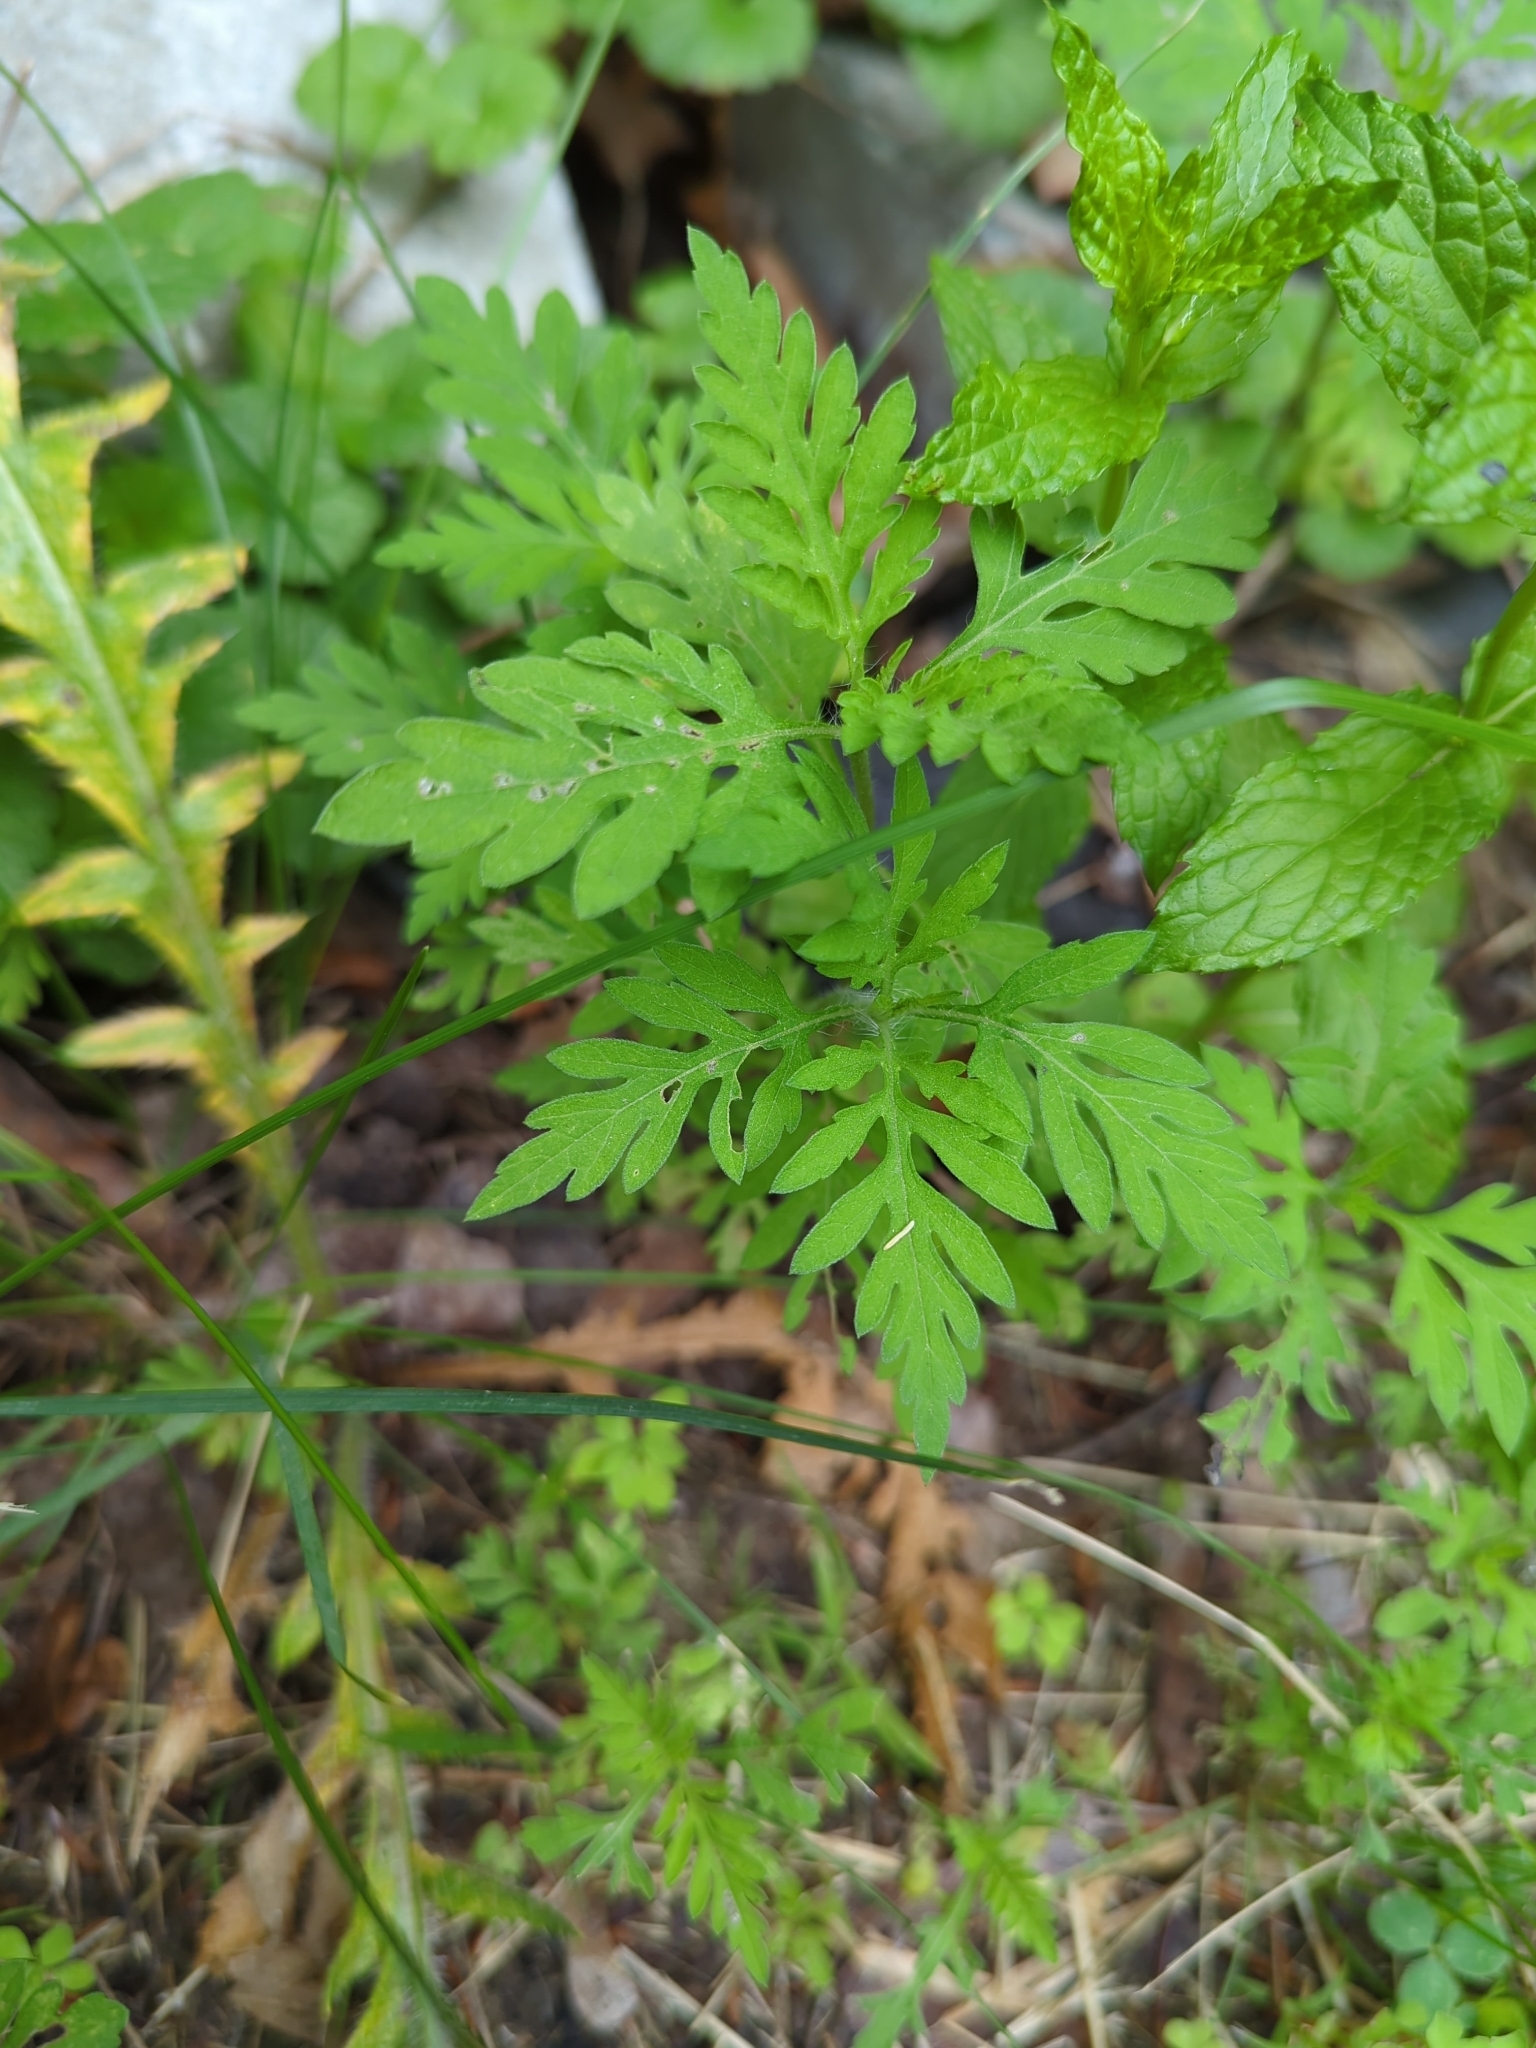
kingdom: Plantae
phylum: Tracheophyta
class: Magnoliopsida
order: Asterales
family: Asteraceae
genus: Ambrosia
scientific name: Ambrosia artemisiifolia
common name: Annual ragweed
